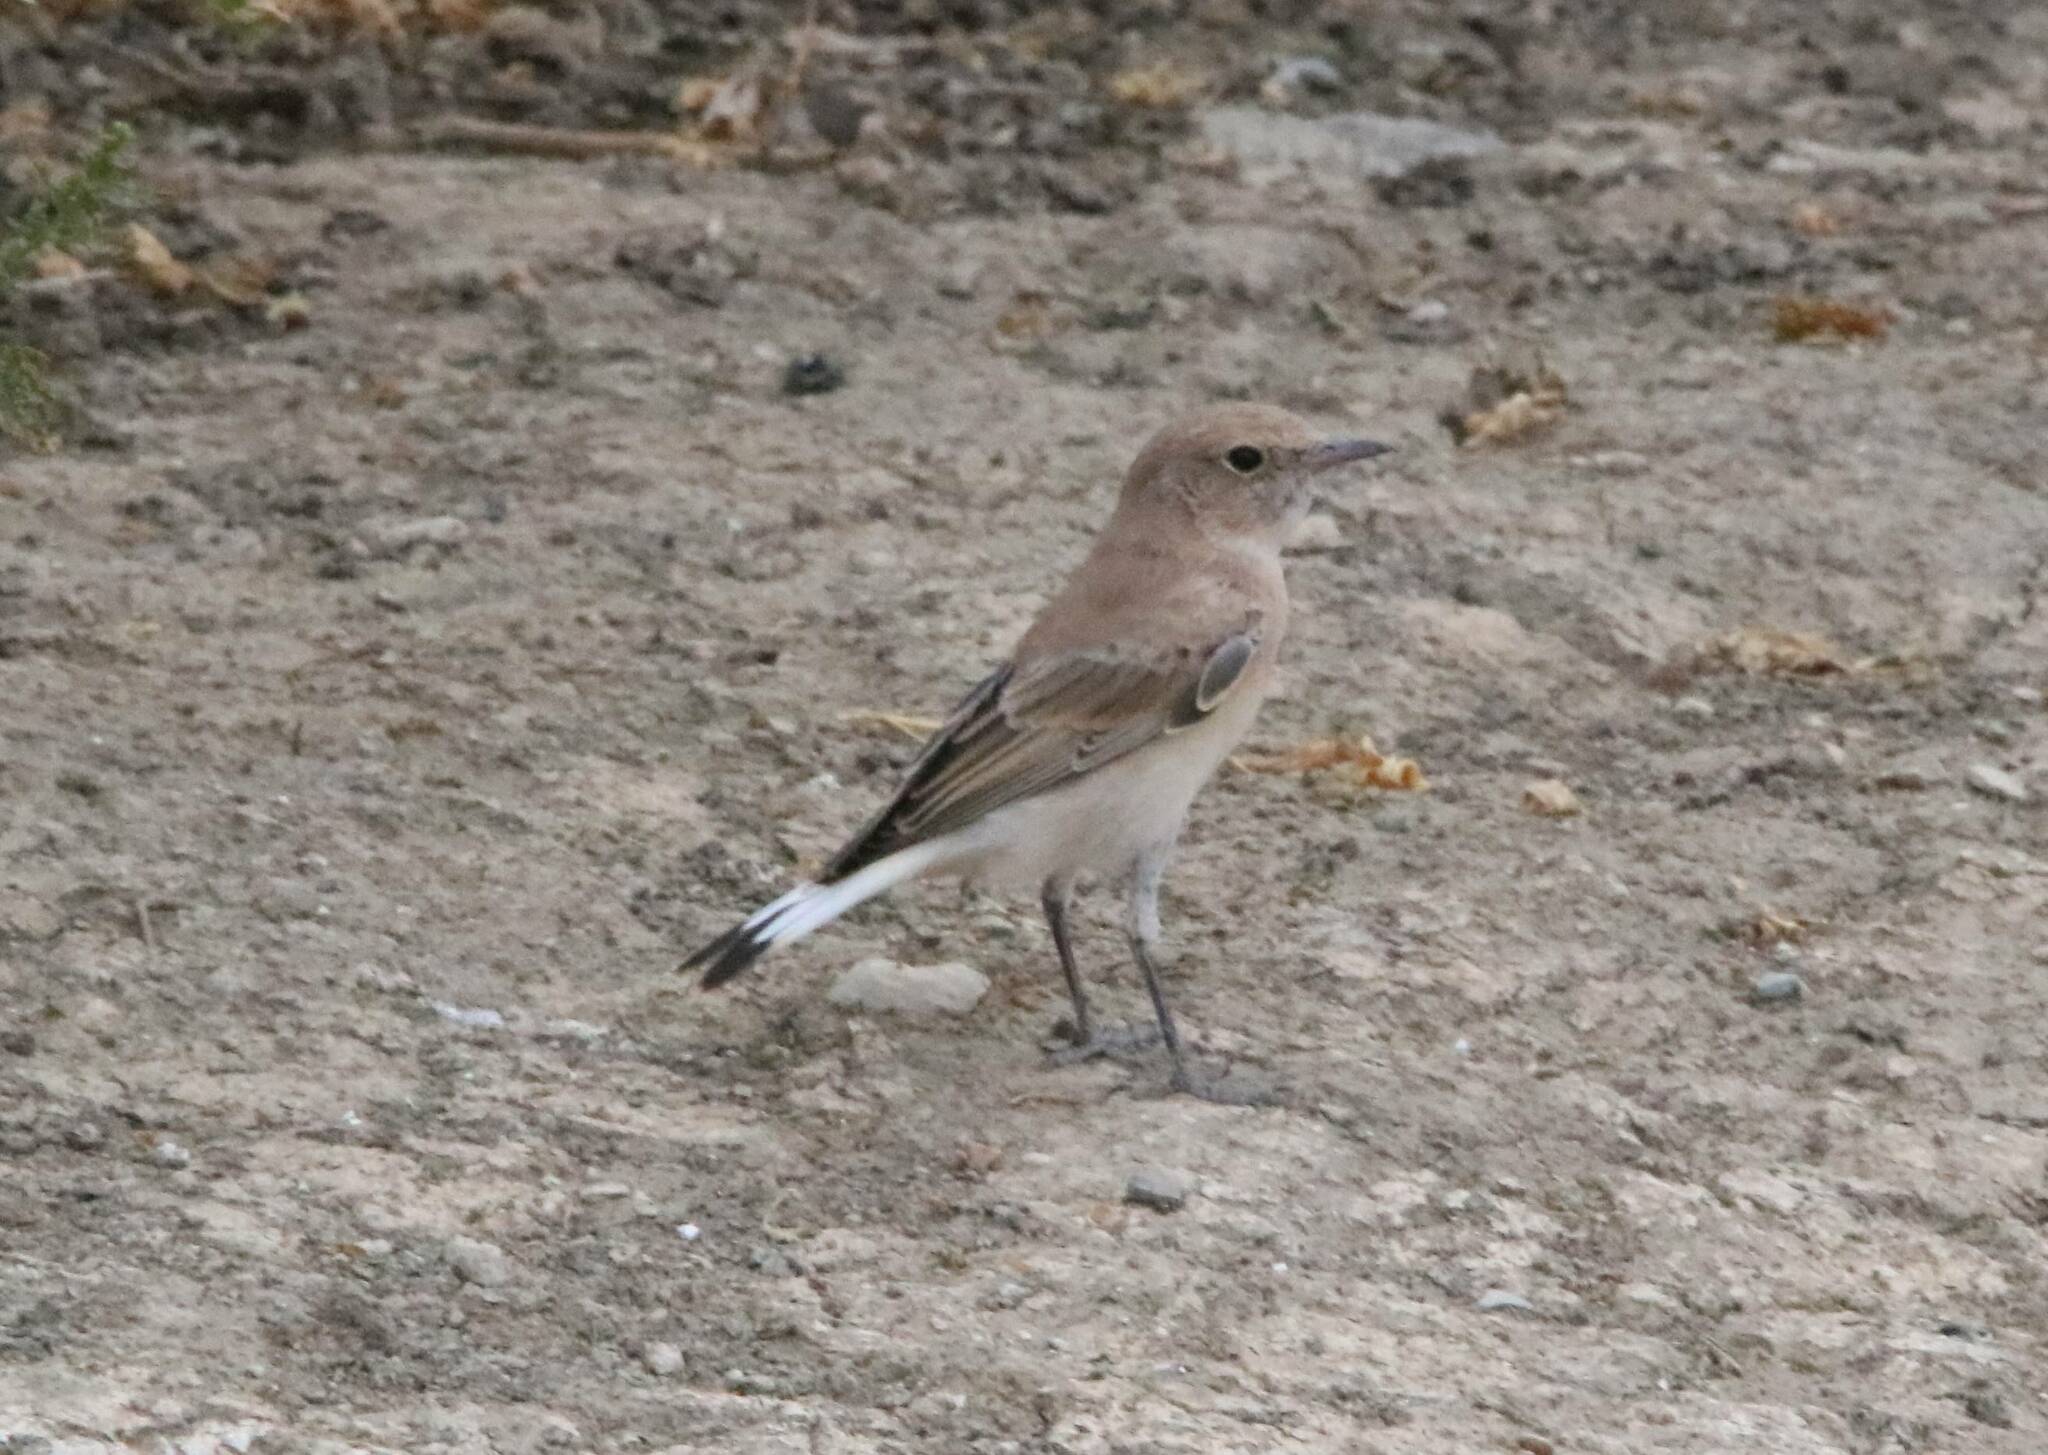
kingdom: Animalia
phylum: Chordata
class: Aves
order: Passeriformes
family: Muscicapidae
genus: Oenanthe
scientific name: Oenanthe hispanica
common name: Black-eared wheatear
